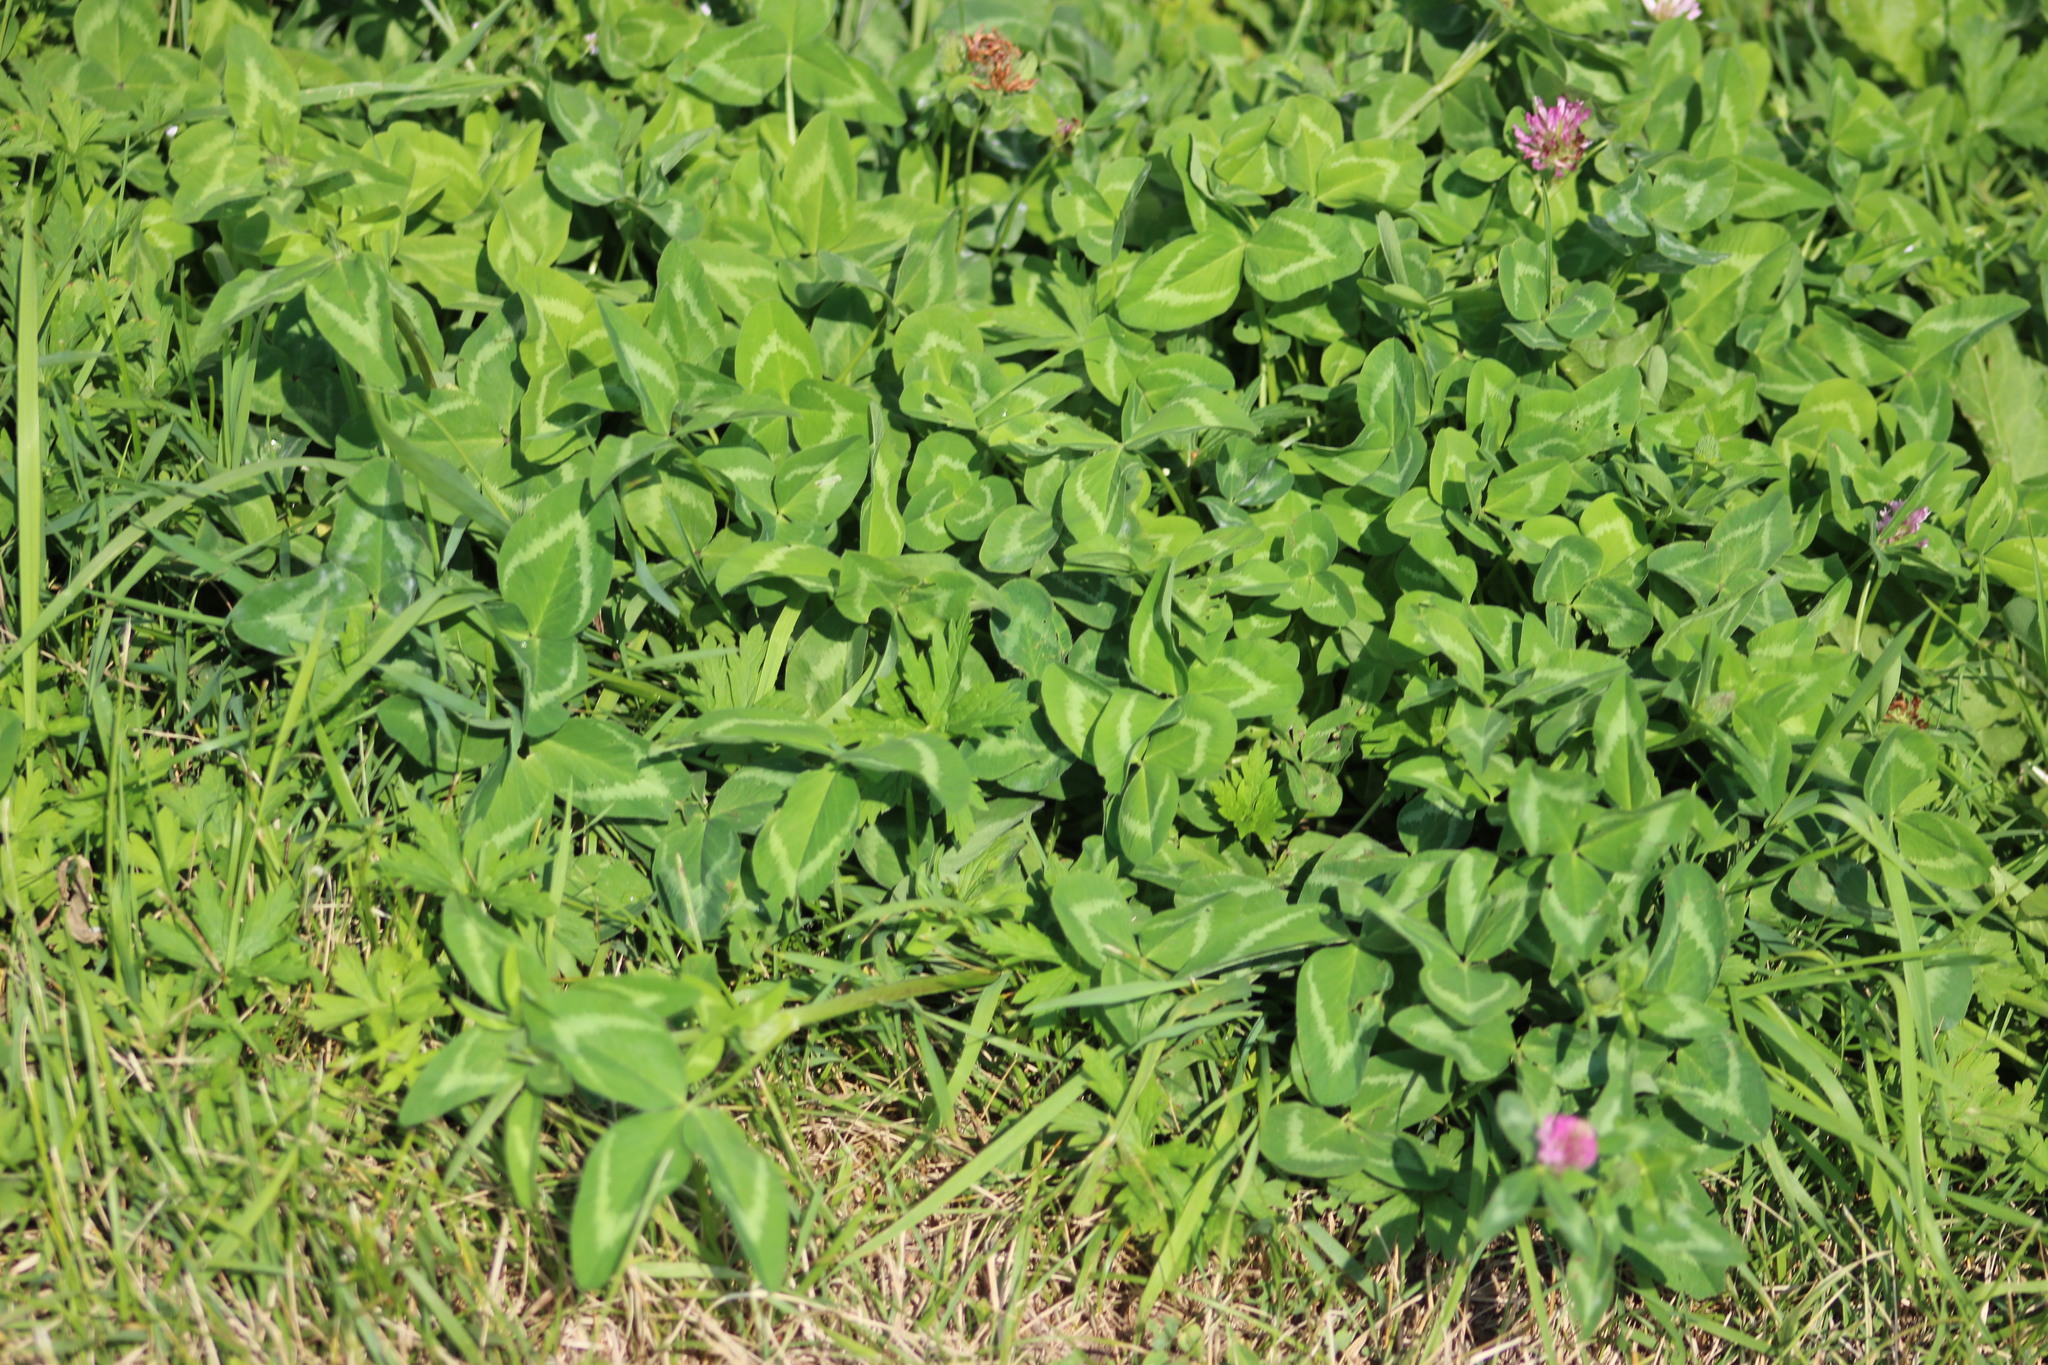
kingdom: Plantae
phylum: Tracheophyta
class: Magnoliopsida
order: Fabales
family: Fabaceae
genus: Trifolium
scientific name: Trifolium pratense
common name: Red clover
